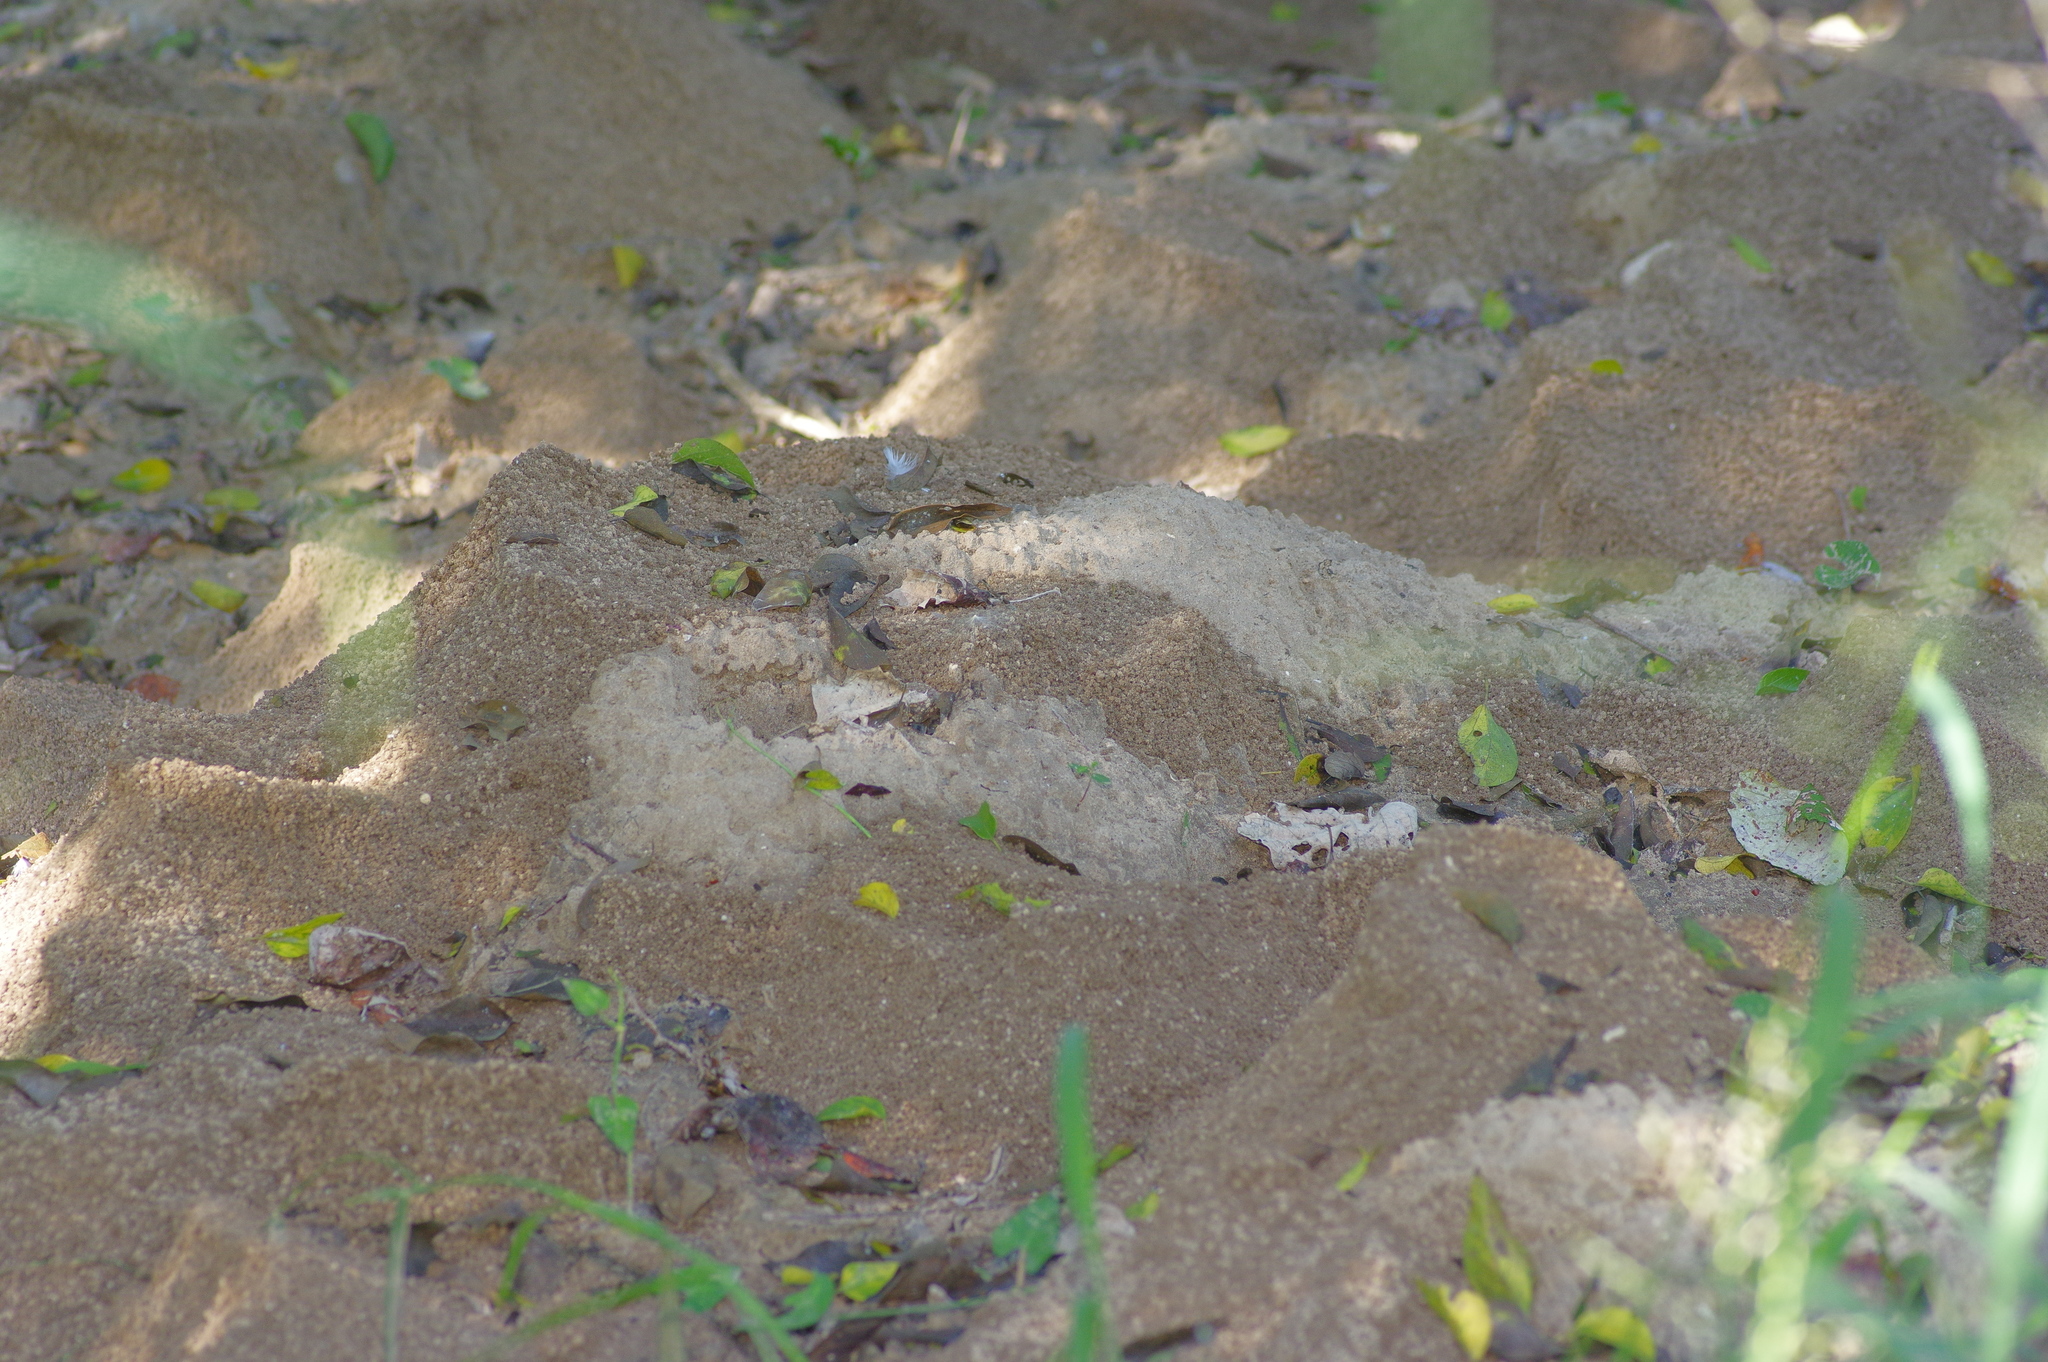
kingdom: Animalia
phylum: Arthropoda
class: Insecta
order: Hymenoptera
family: Formicidae
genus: Atta
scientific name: Atta texana
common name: Texas leafcutting ant
